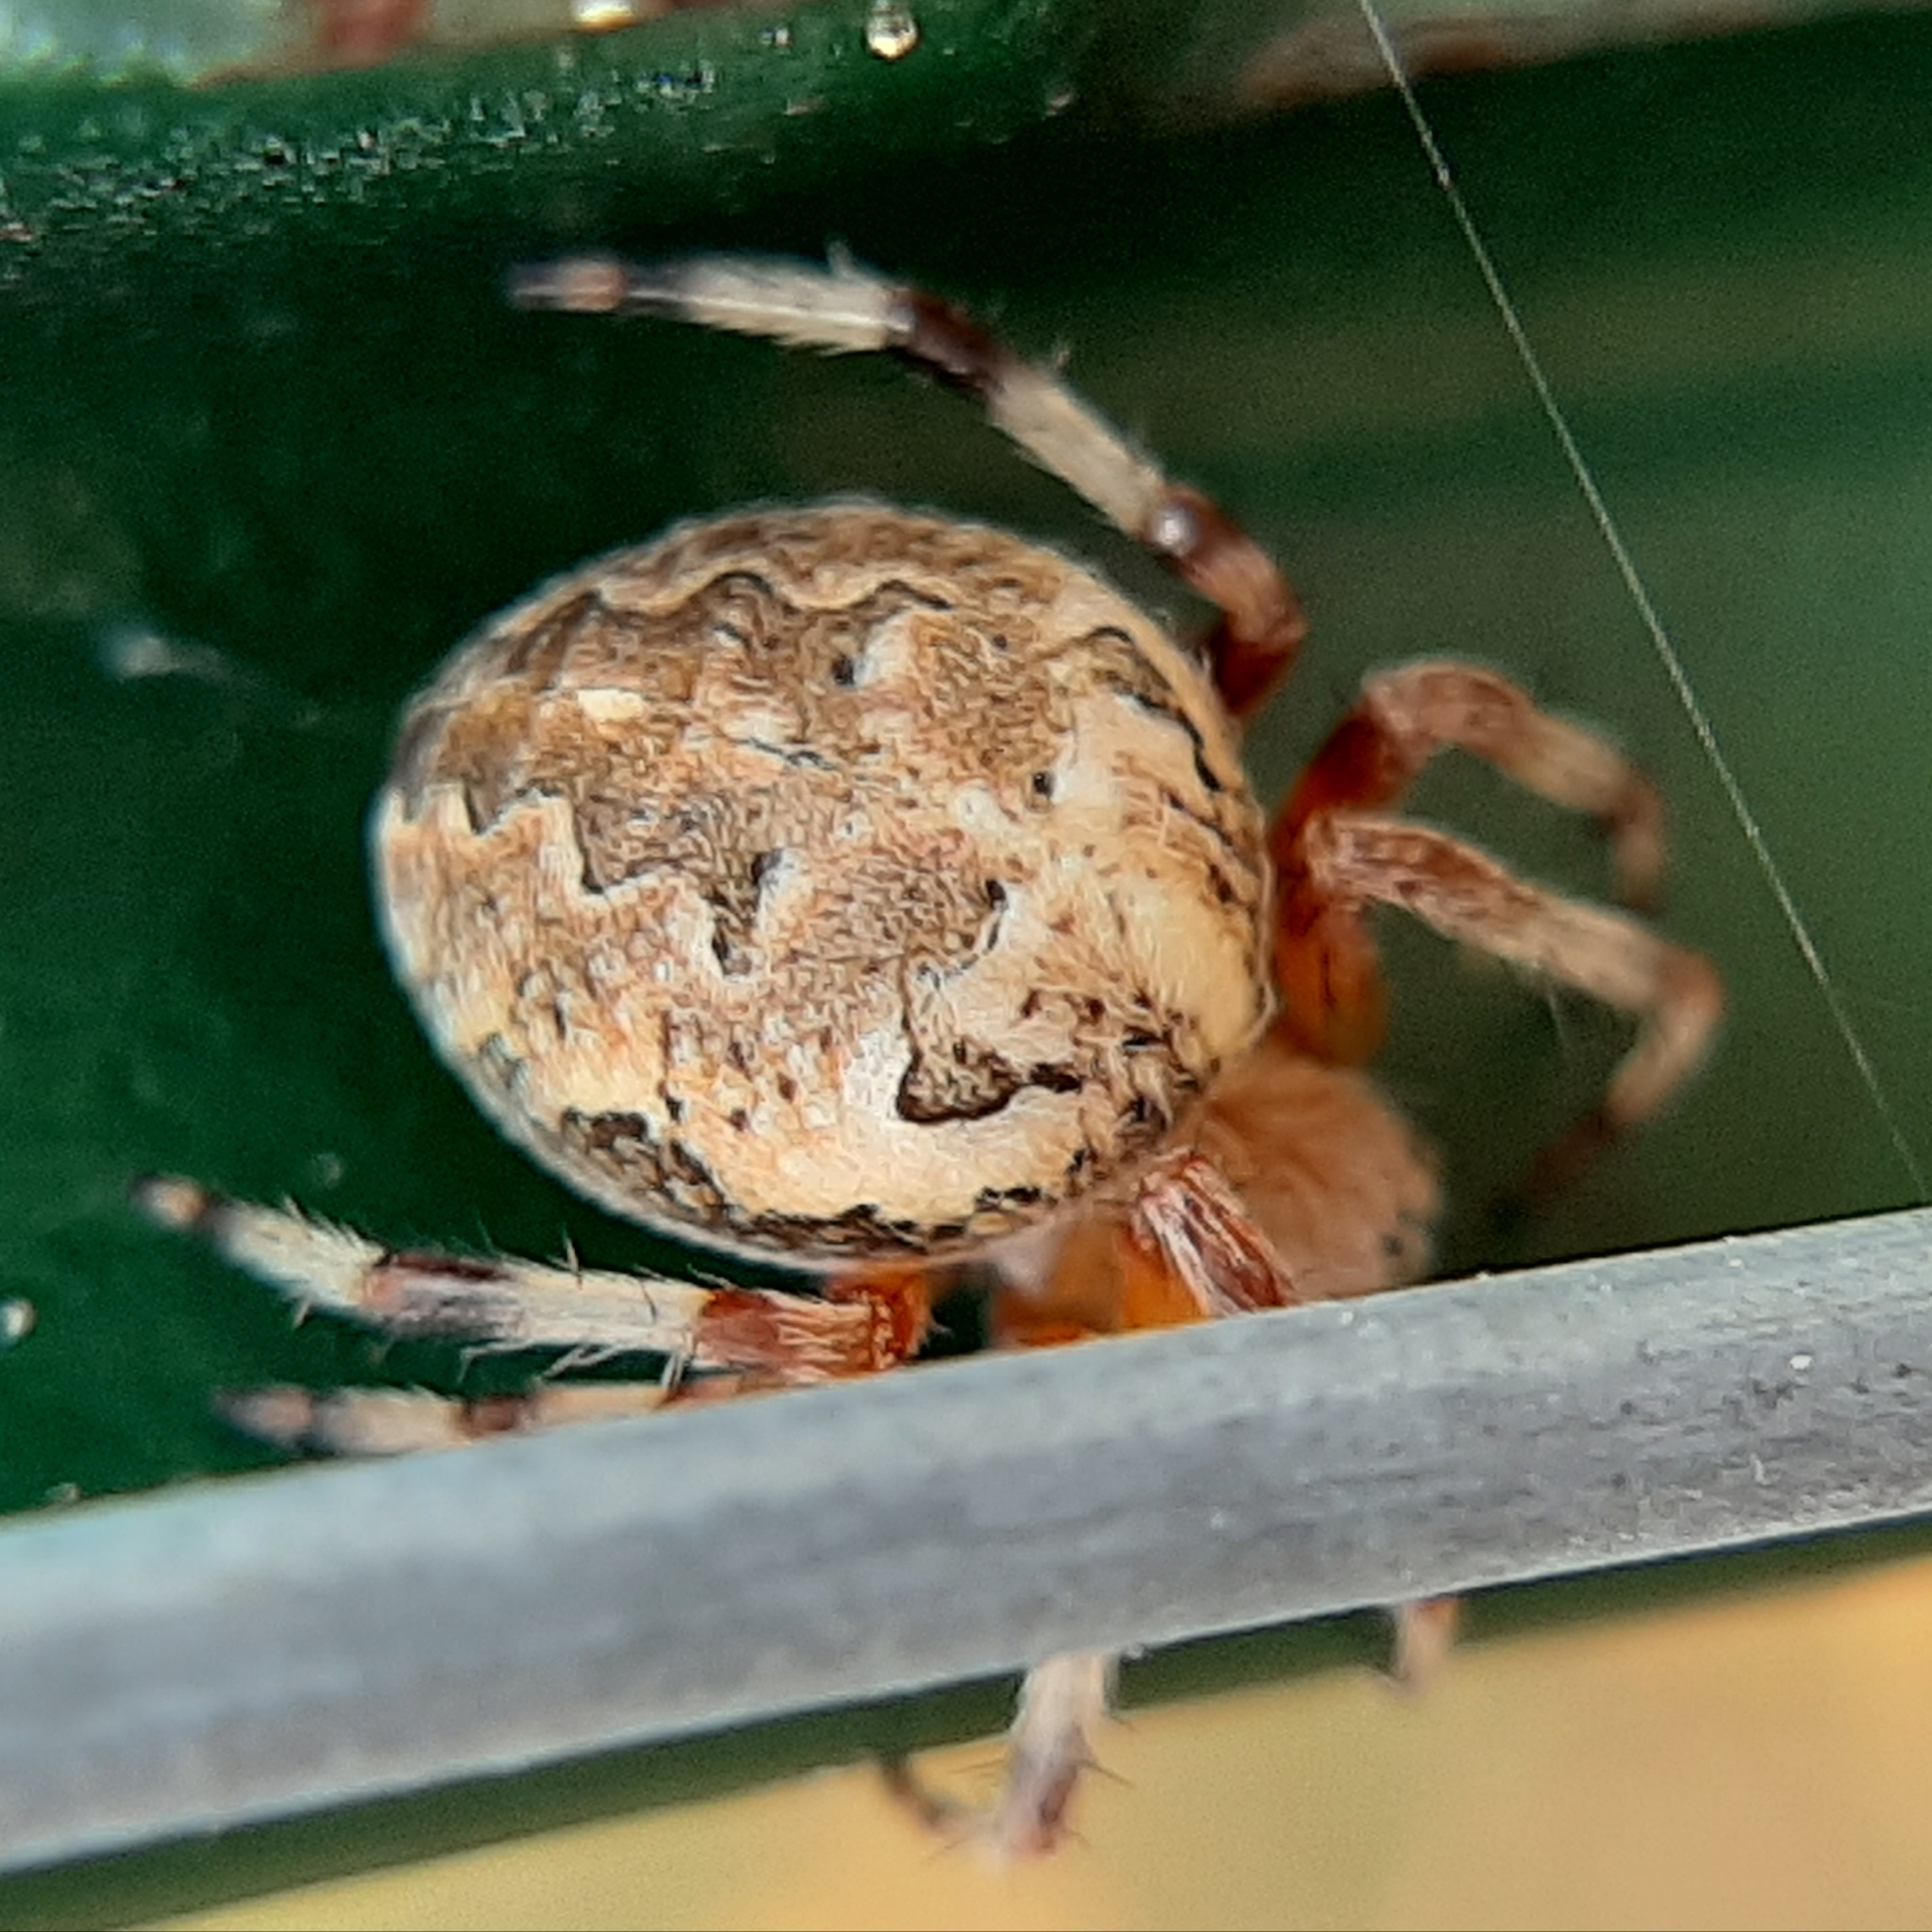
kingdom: Animalia
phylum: Arthropoda
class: Arachnida
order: Araneae
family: Araneidae
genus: Araneus
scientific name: Araneus marmoreus
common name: Marbled orbweaver
